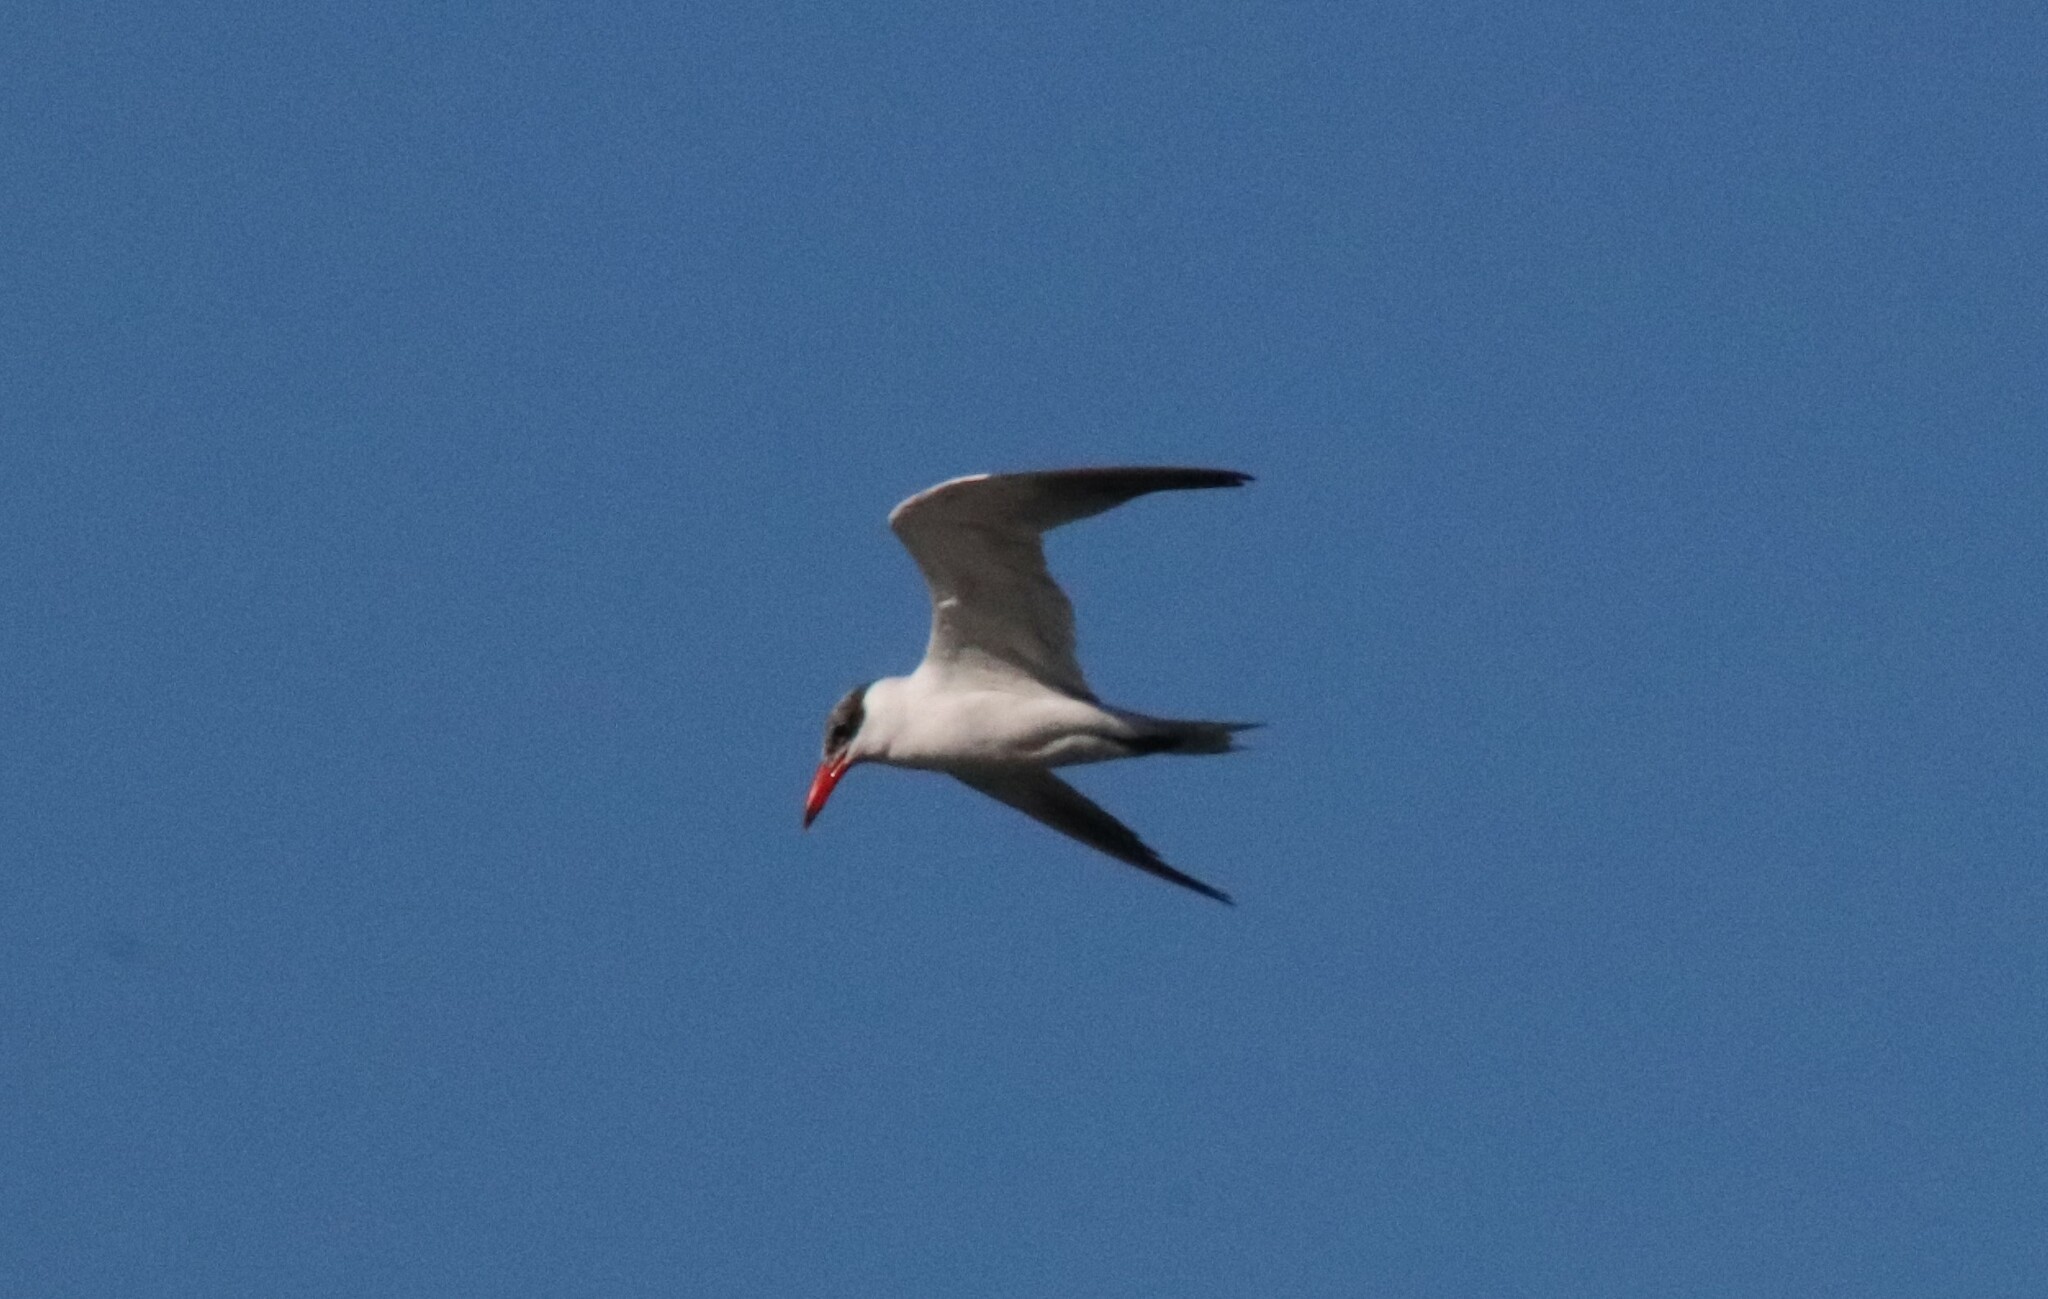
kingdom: Animalia
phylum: Chordata
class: Aves
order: Charadriiformes
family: Laridae
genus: Hydroprogne
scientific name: Hydroprogne caspia
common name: Caspian tern
